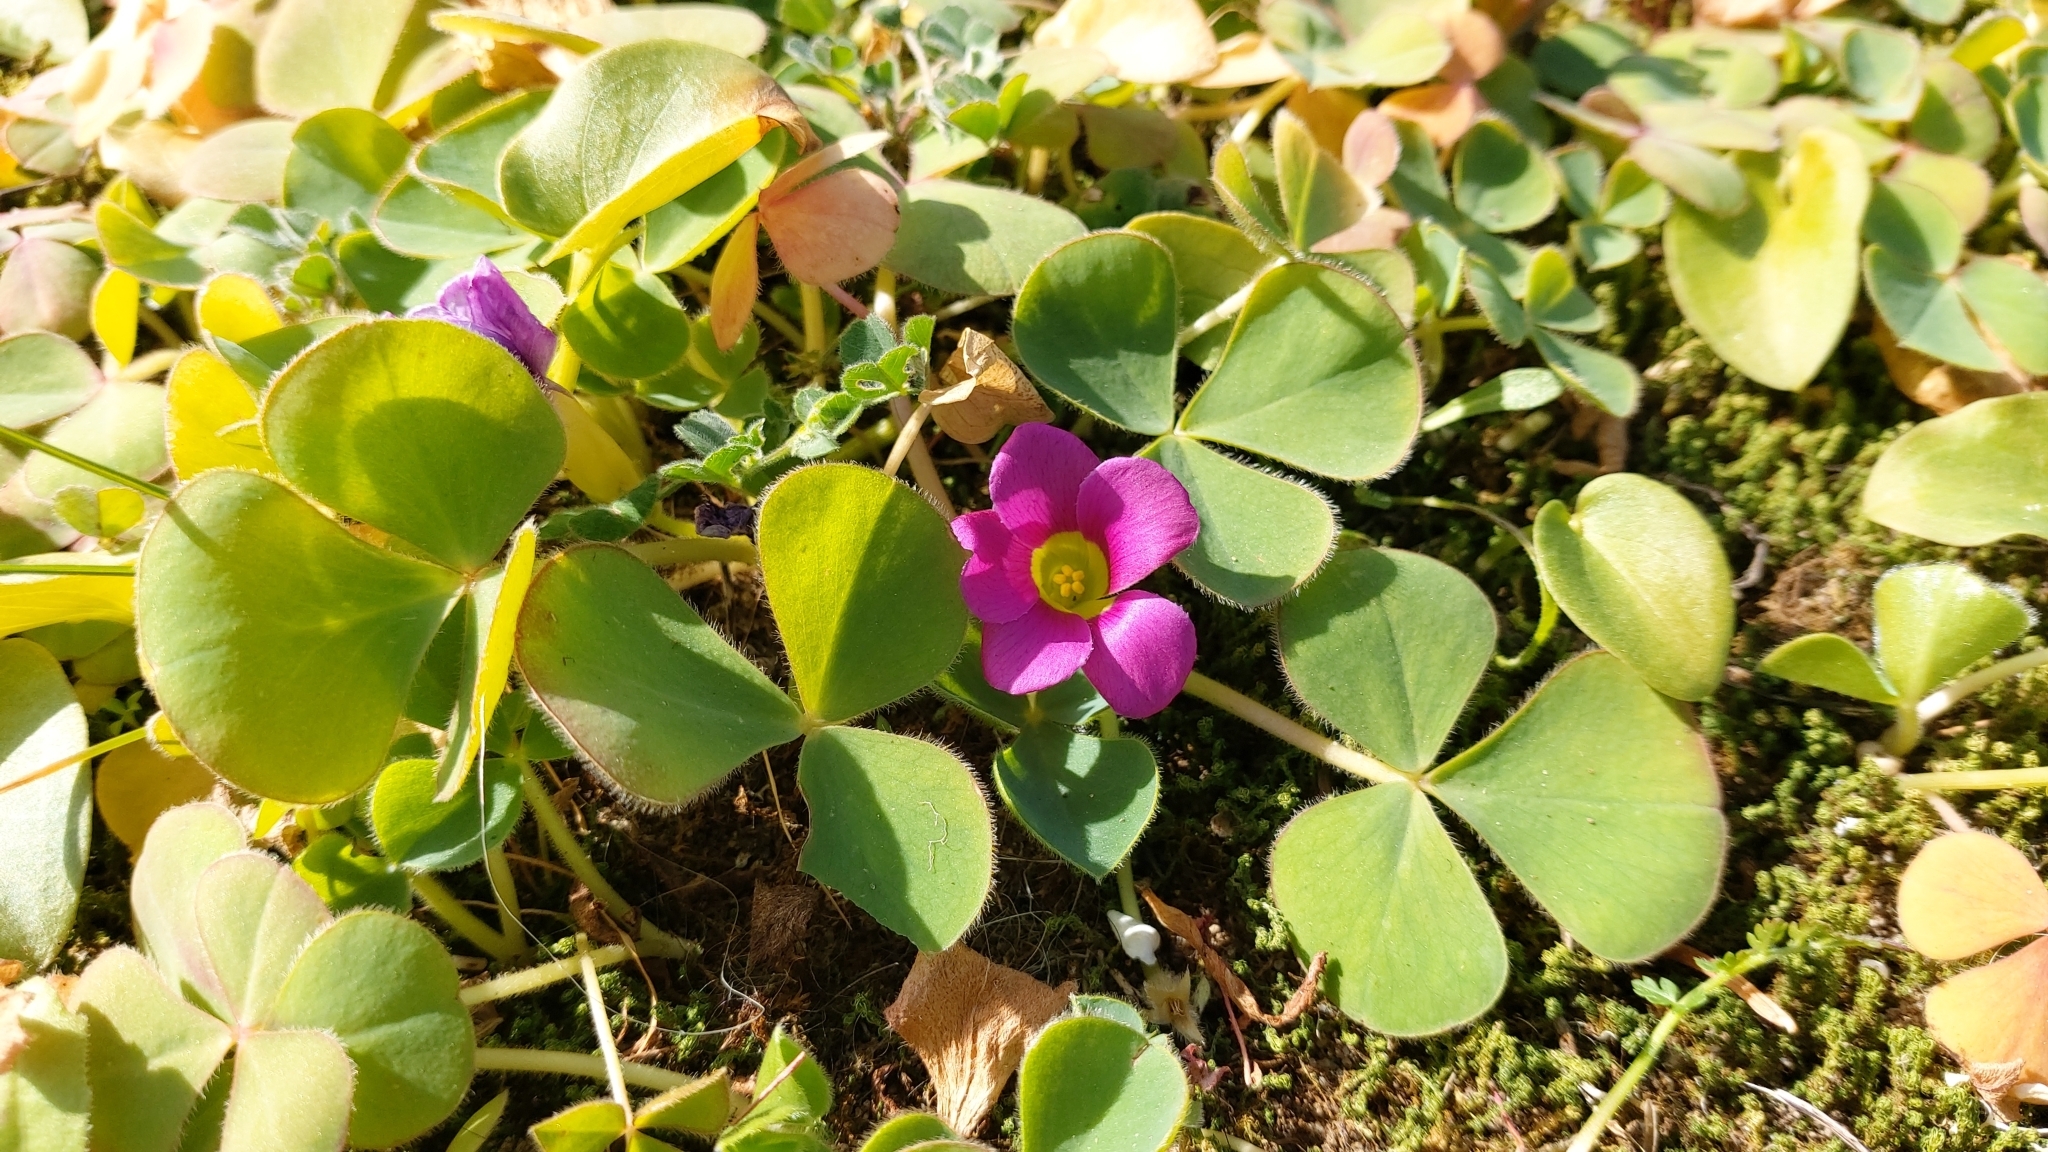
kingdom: Plantae
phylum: Tracheophyta
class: Magnoliopsida
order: Oxalidales
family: Oxalidaceae
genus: Oxalis
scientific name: Oxalis purpurea
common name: Purple woodsorrel
